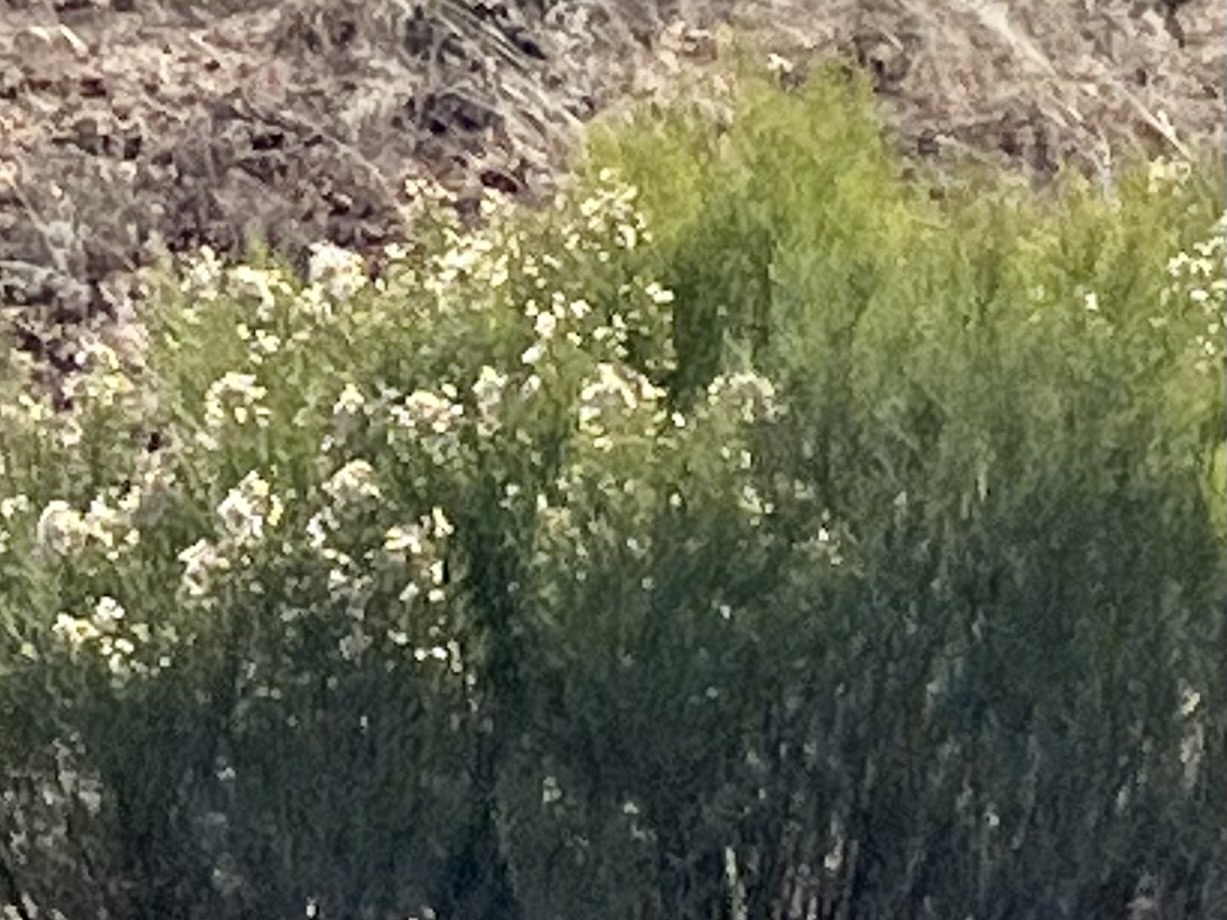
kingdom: Plantae
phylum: Tracheophyta
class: Magnoliopsida
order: Asterales
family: Asteraceae
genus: Baccharis
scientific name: Baccharis sarothroides
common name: Desert-broom
